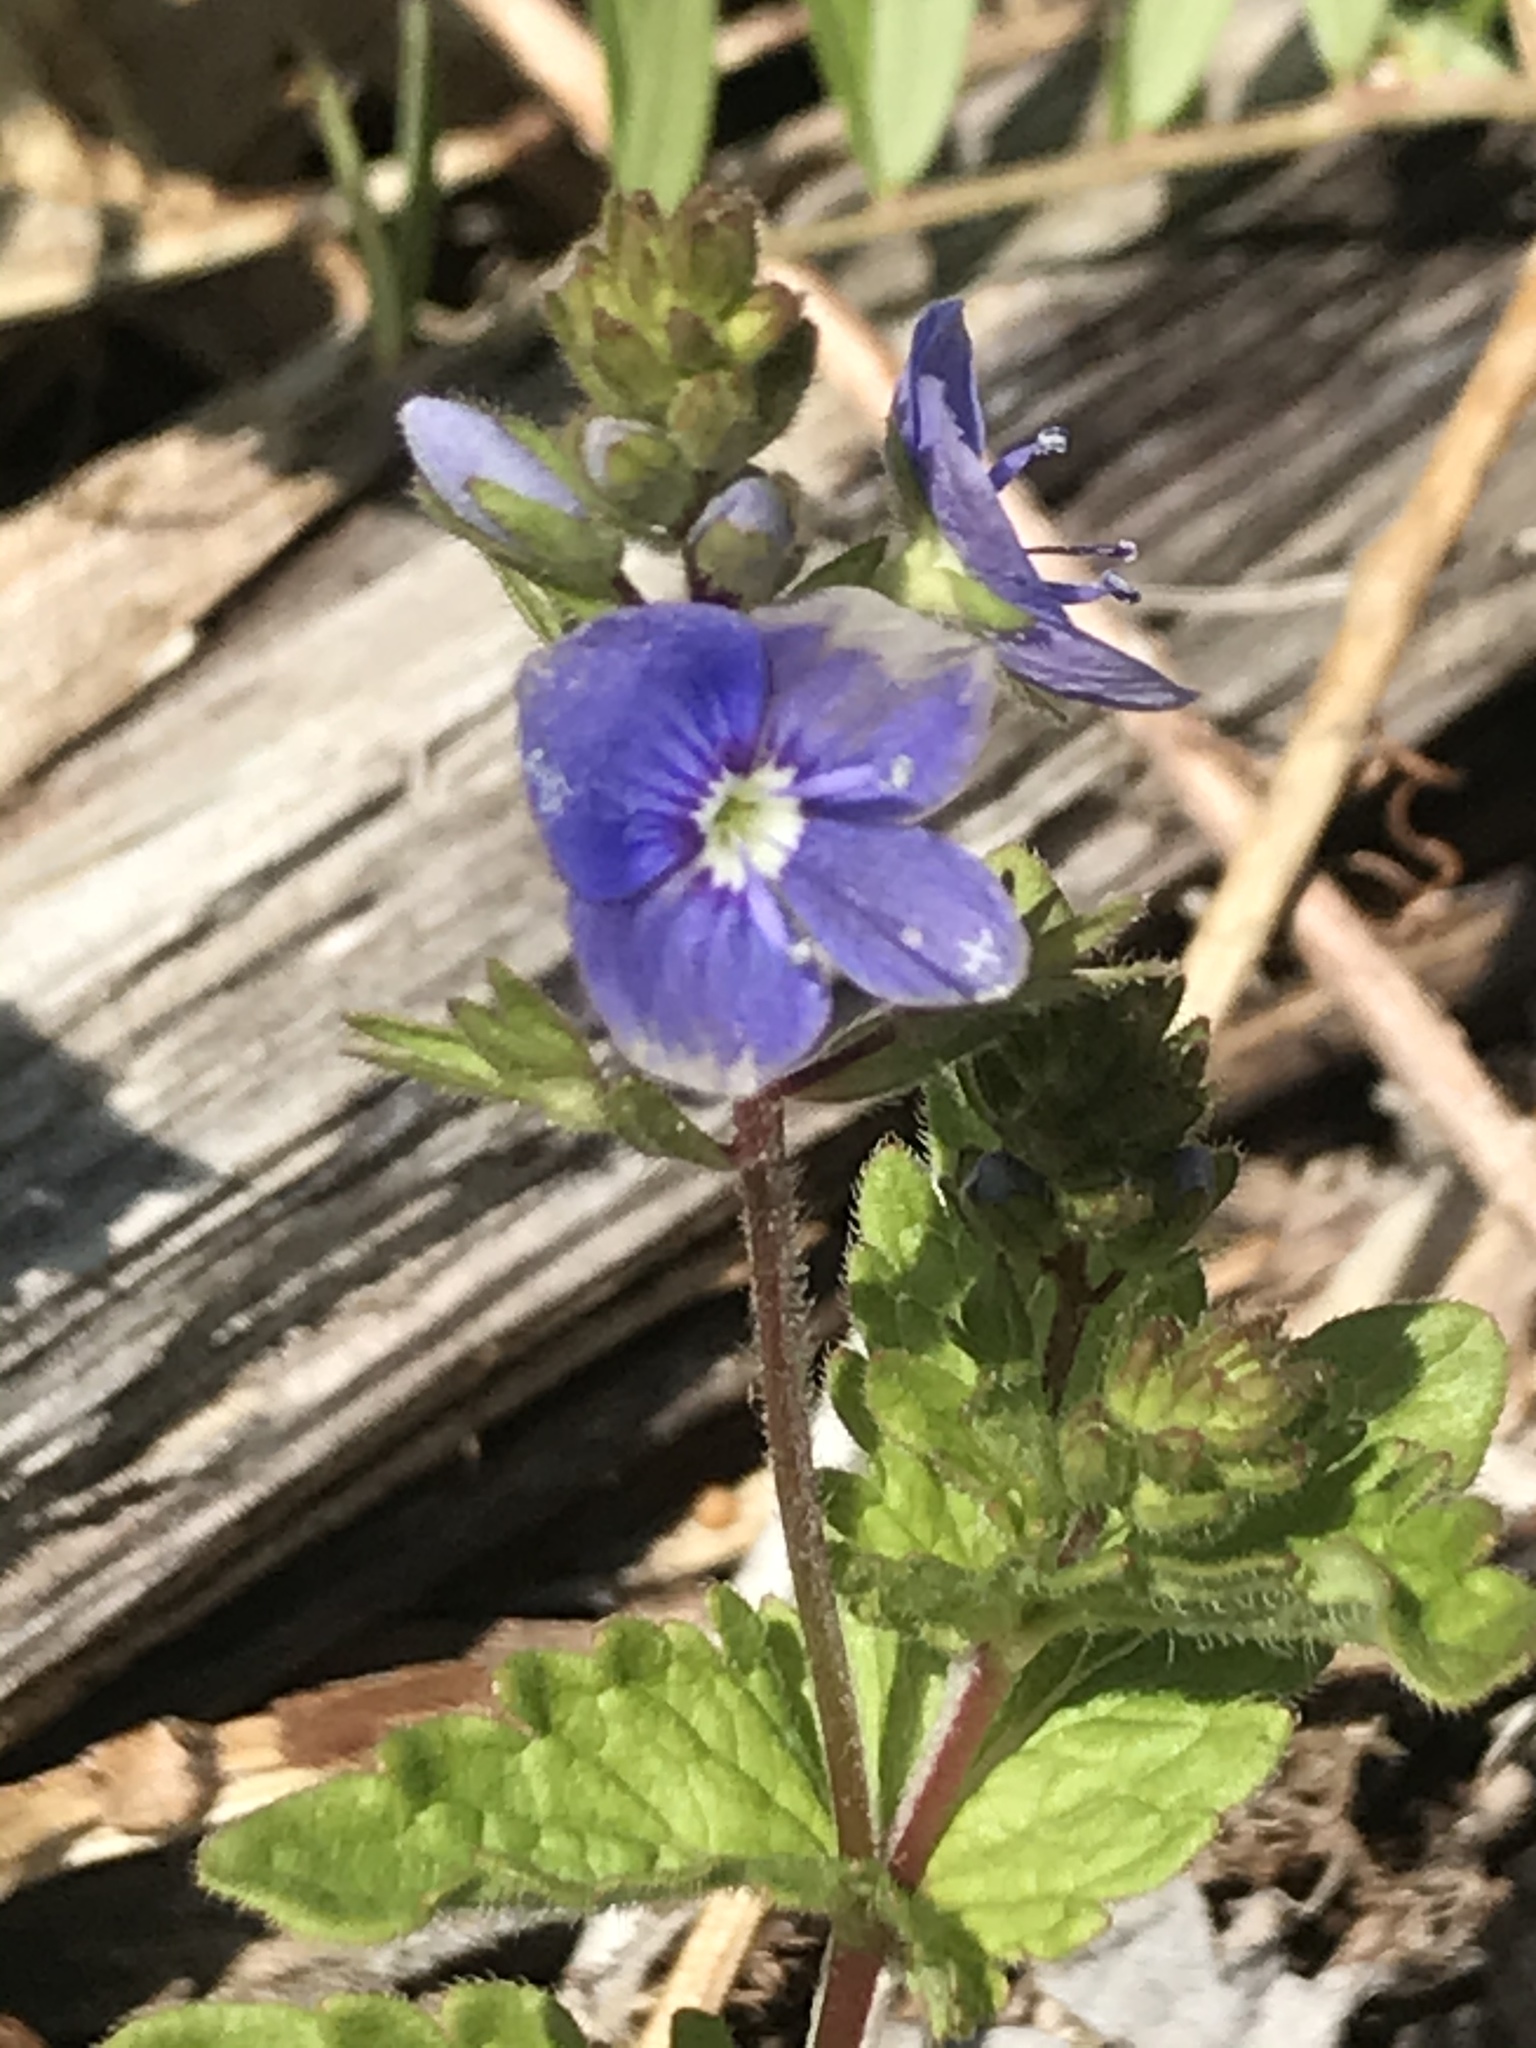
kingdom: Plantae
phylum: Tracheophyta
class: Magnoliopsida
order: Lamiales
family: Plantaginaceae
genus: Veronica
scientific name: Veronica chamaedrys
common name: Germander speedwell
